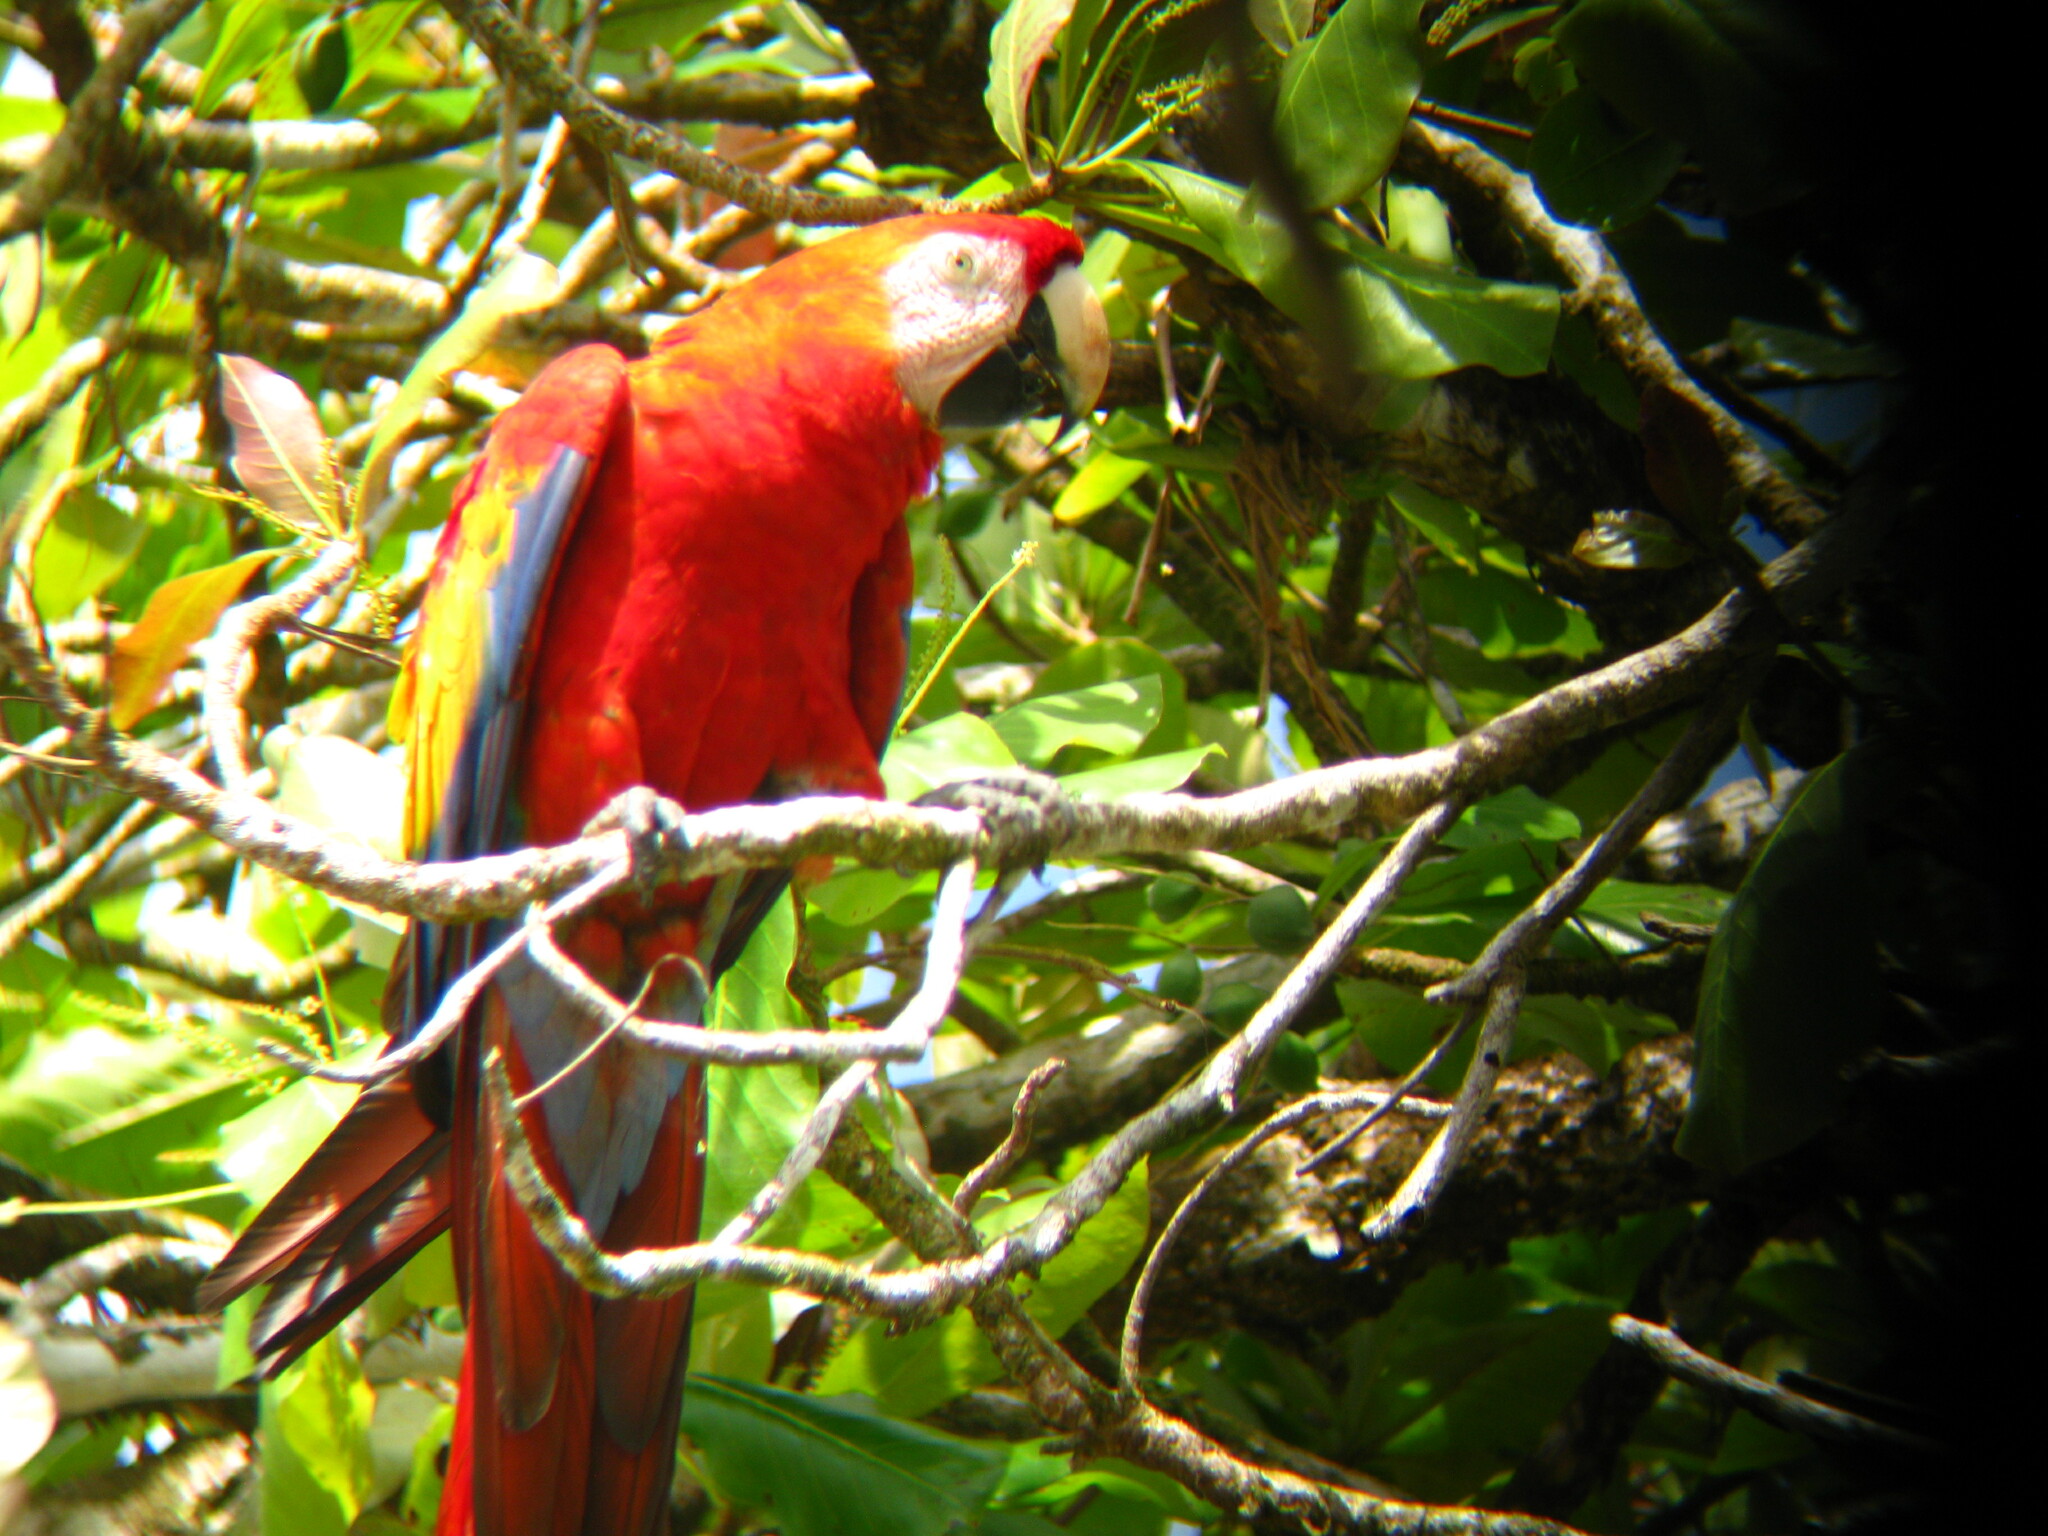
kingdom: Animalia
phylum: Chordata
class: Aves
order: Psittaciformes
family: Psittacidae
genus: Ara
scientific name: Ara macao
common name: Scarlet macaw
